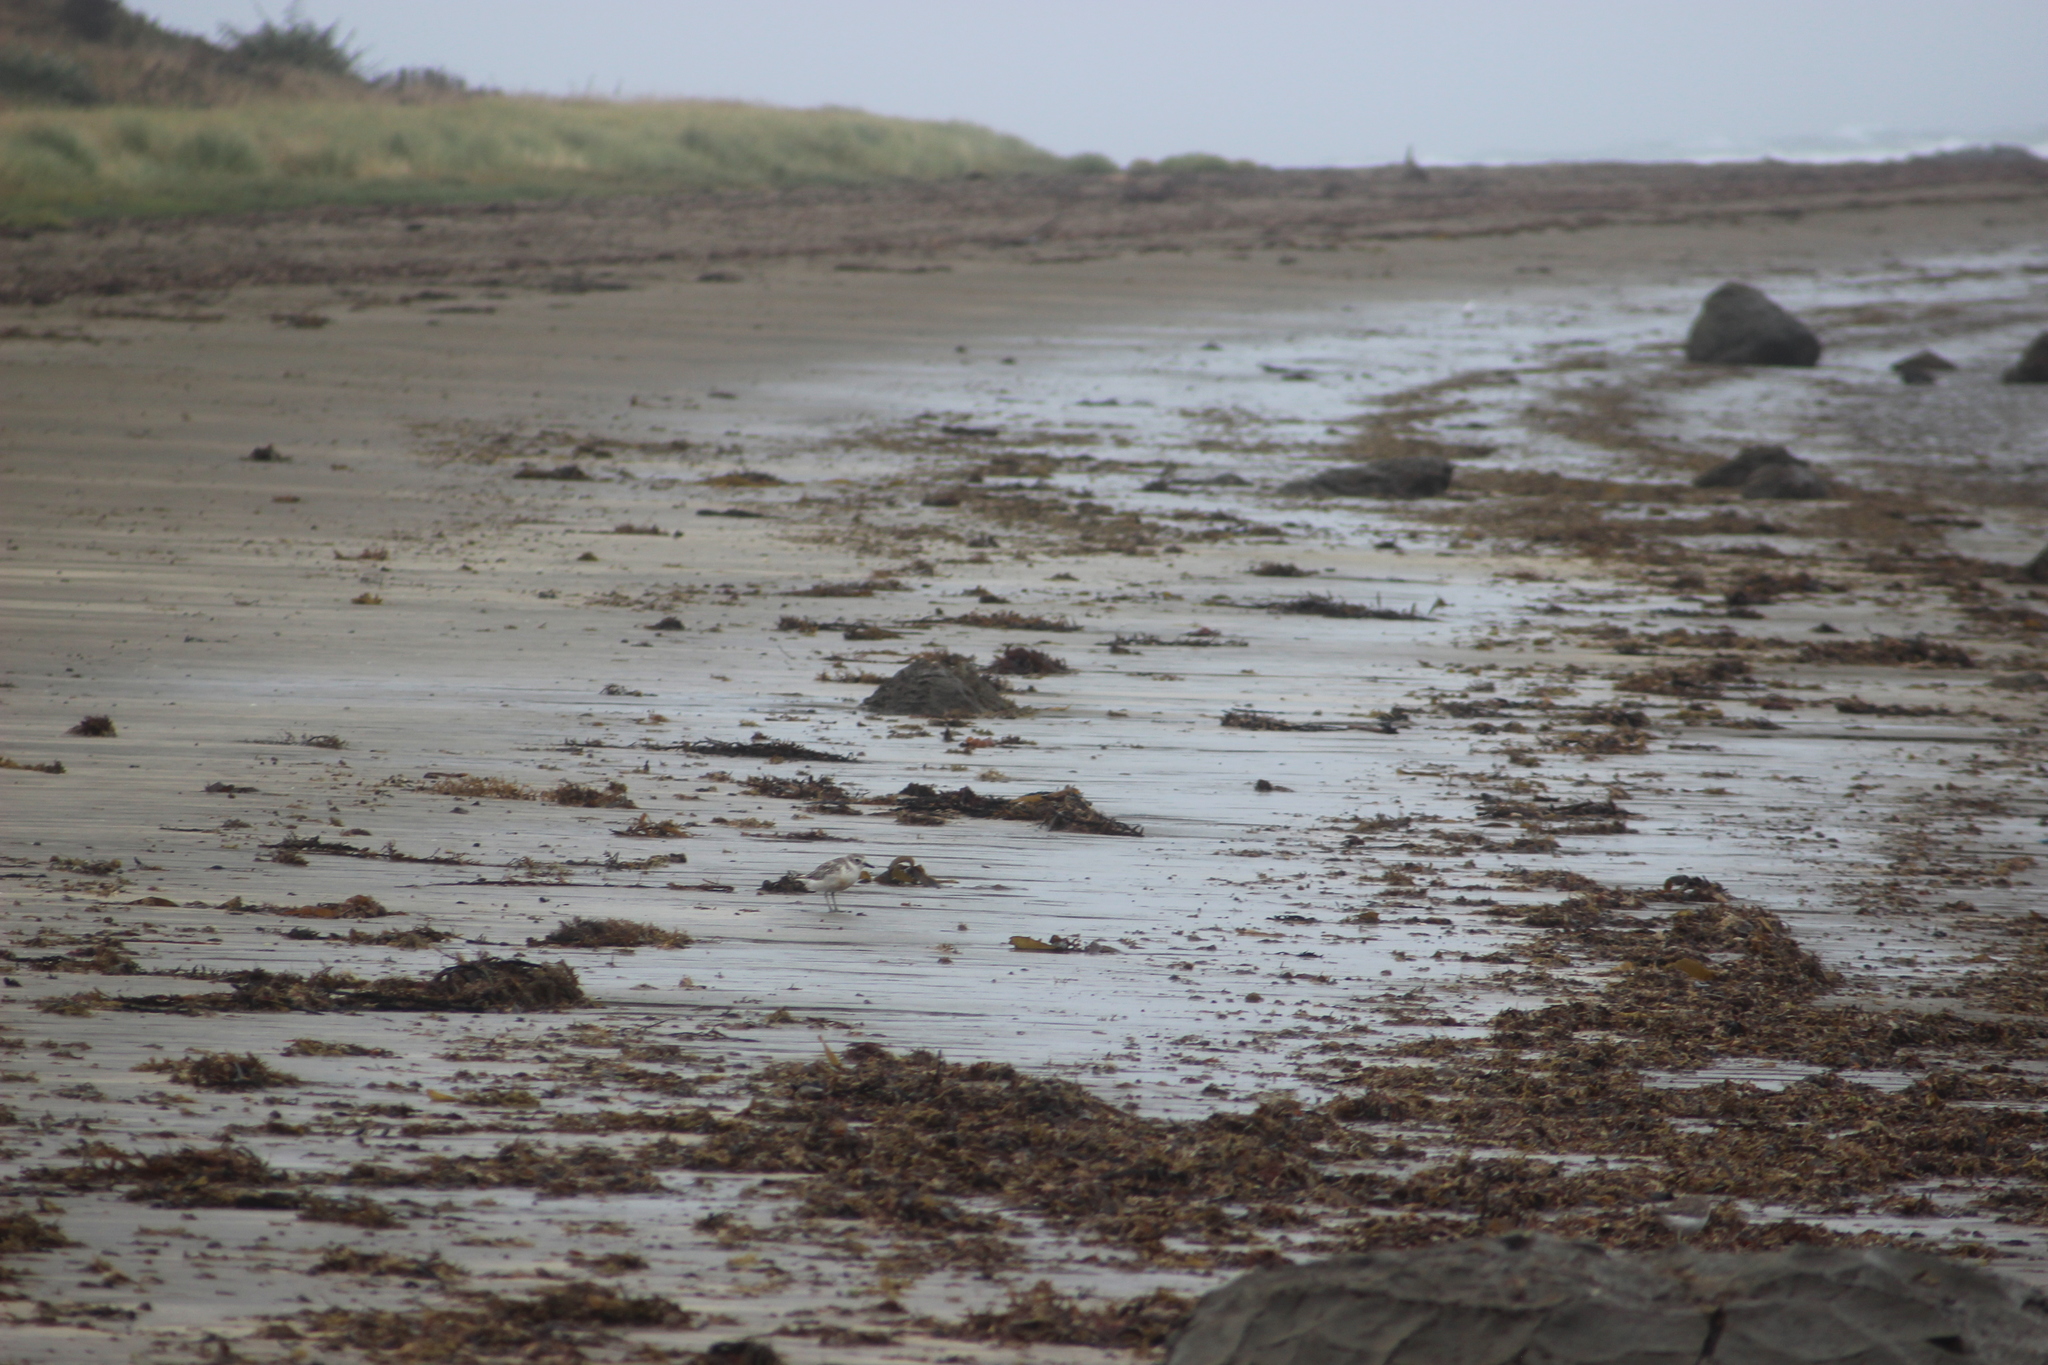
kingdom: Animalia
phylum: Chordata
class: Aves
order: Charadriiformes
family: Charadriidae
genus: Anarhynchus
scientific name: Anarhynchus
